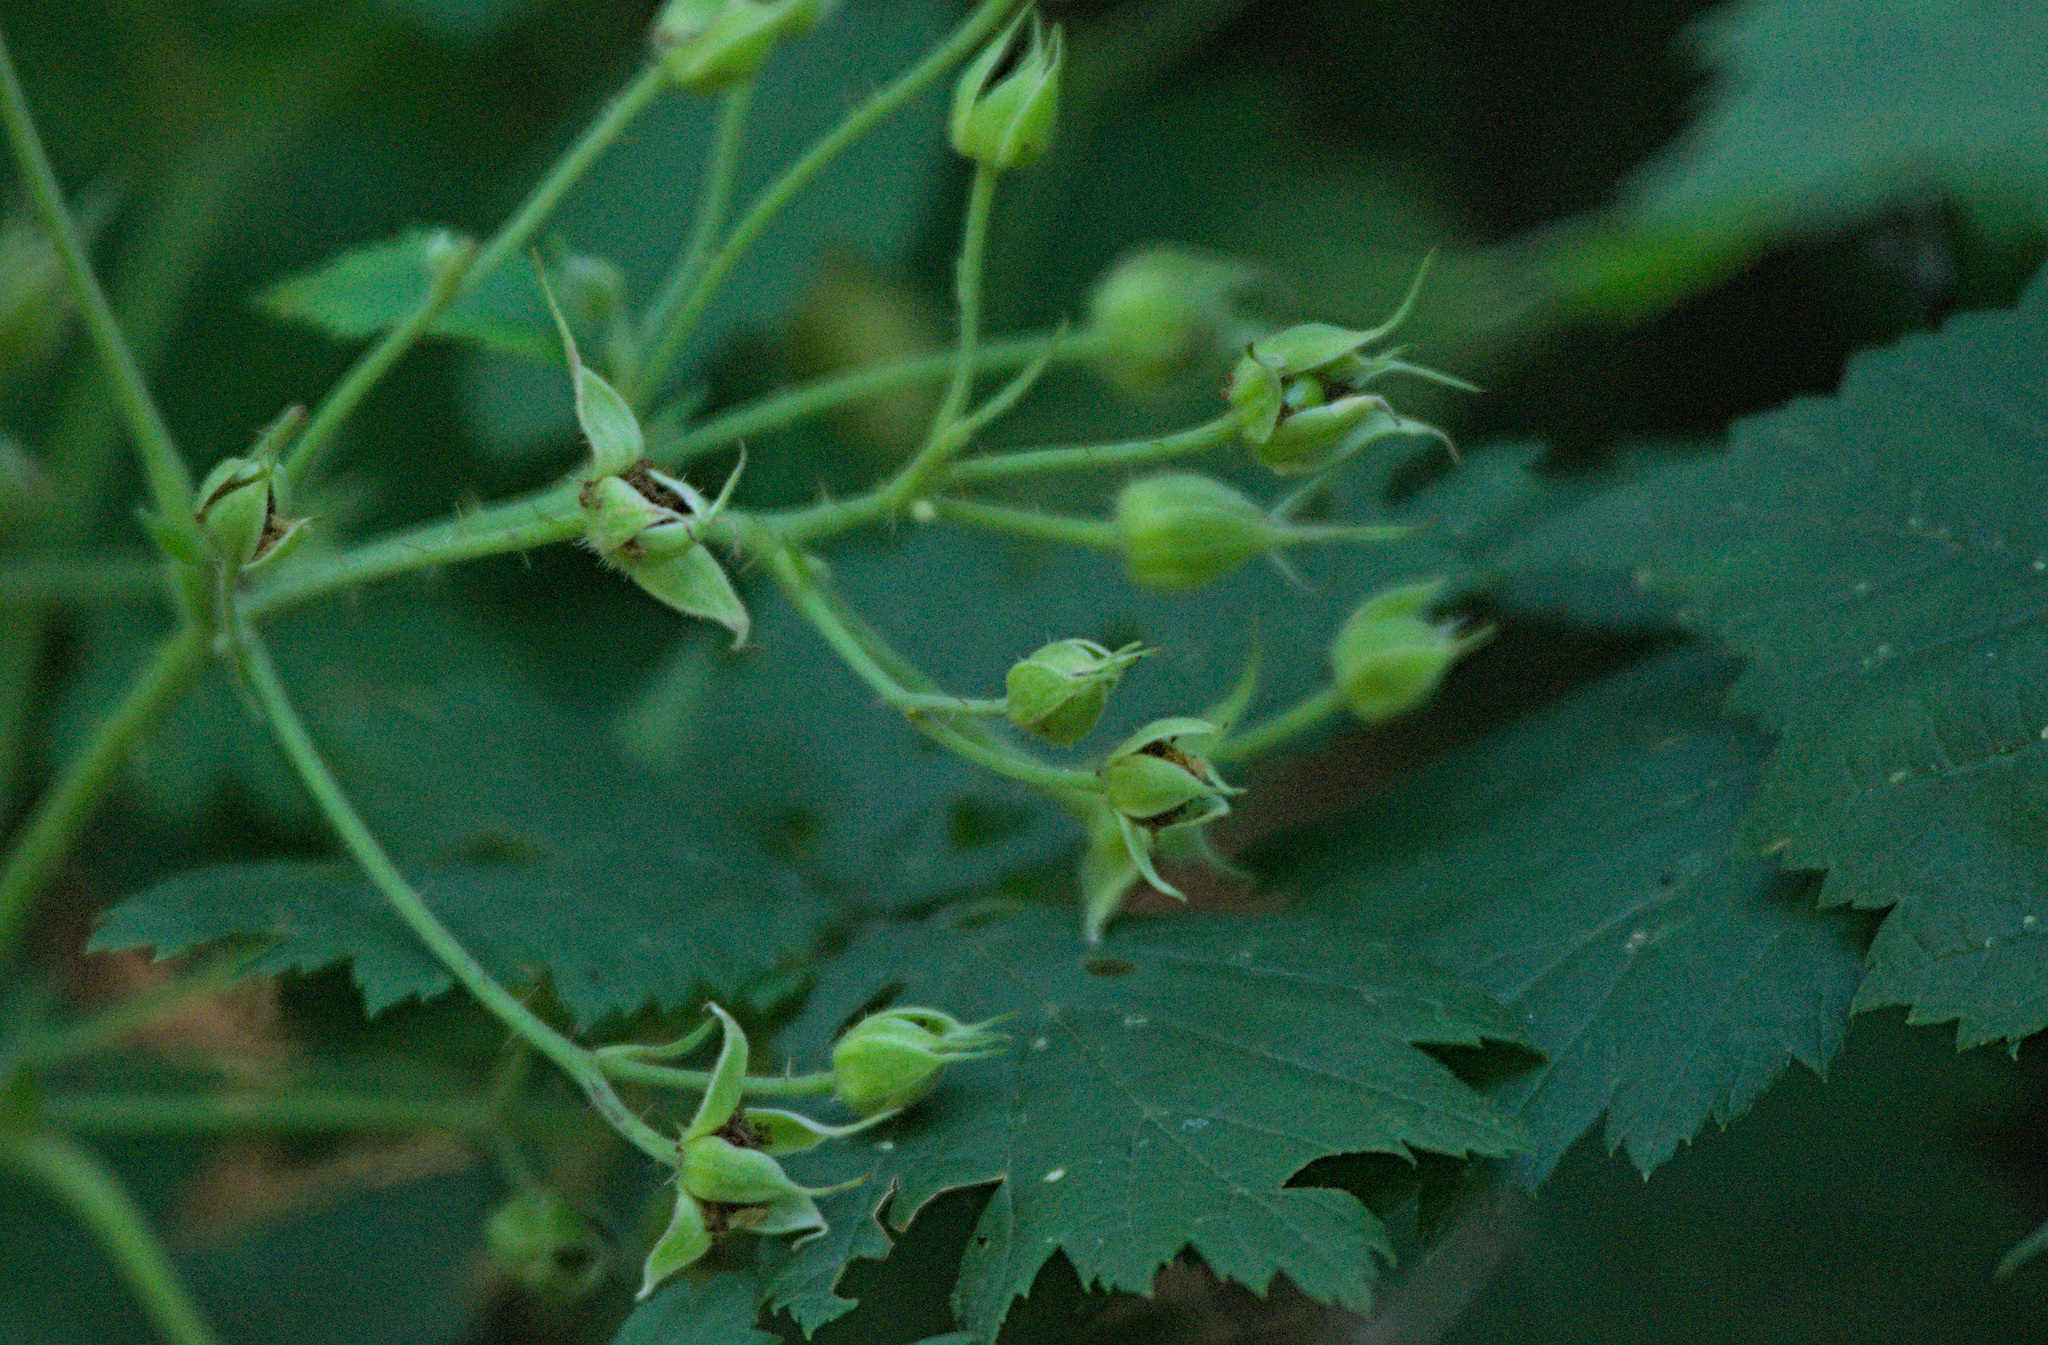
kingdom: Plantae
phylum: Tracheophyta
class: Magnoliopsida
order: Rosales
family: Rosaceae
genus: Rubus
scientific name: Rubus caesius
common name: Dewberry
